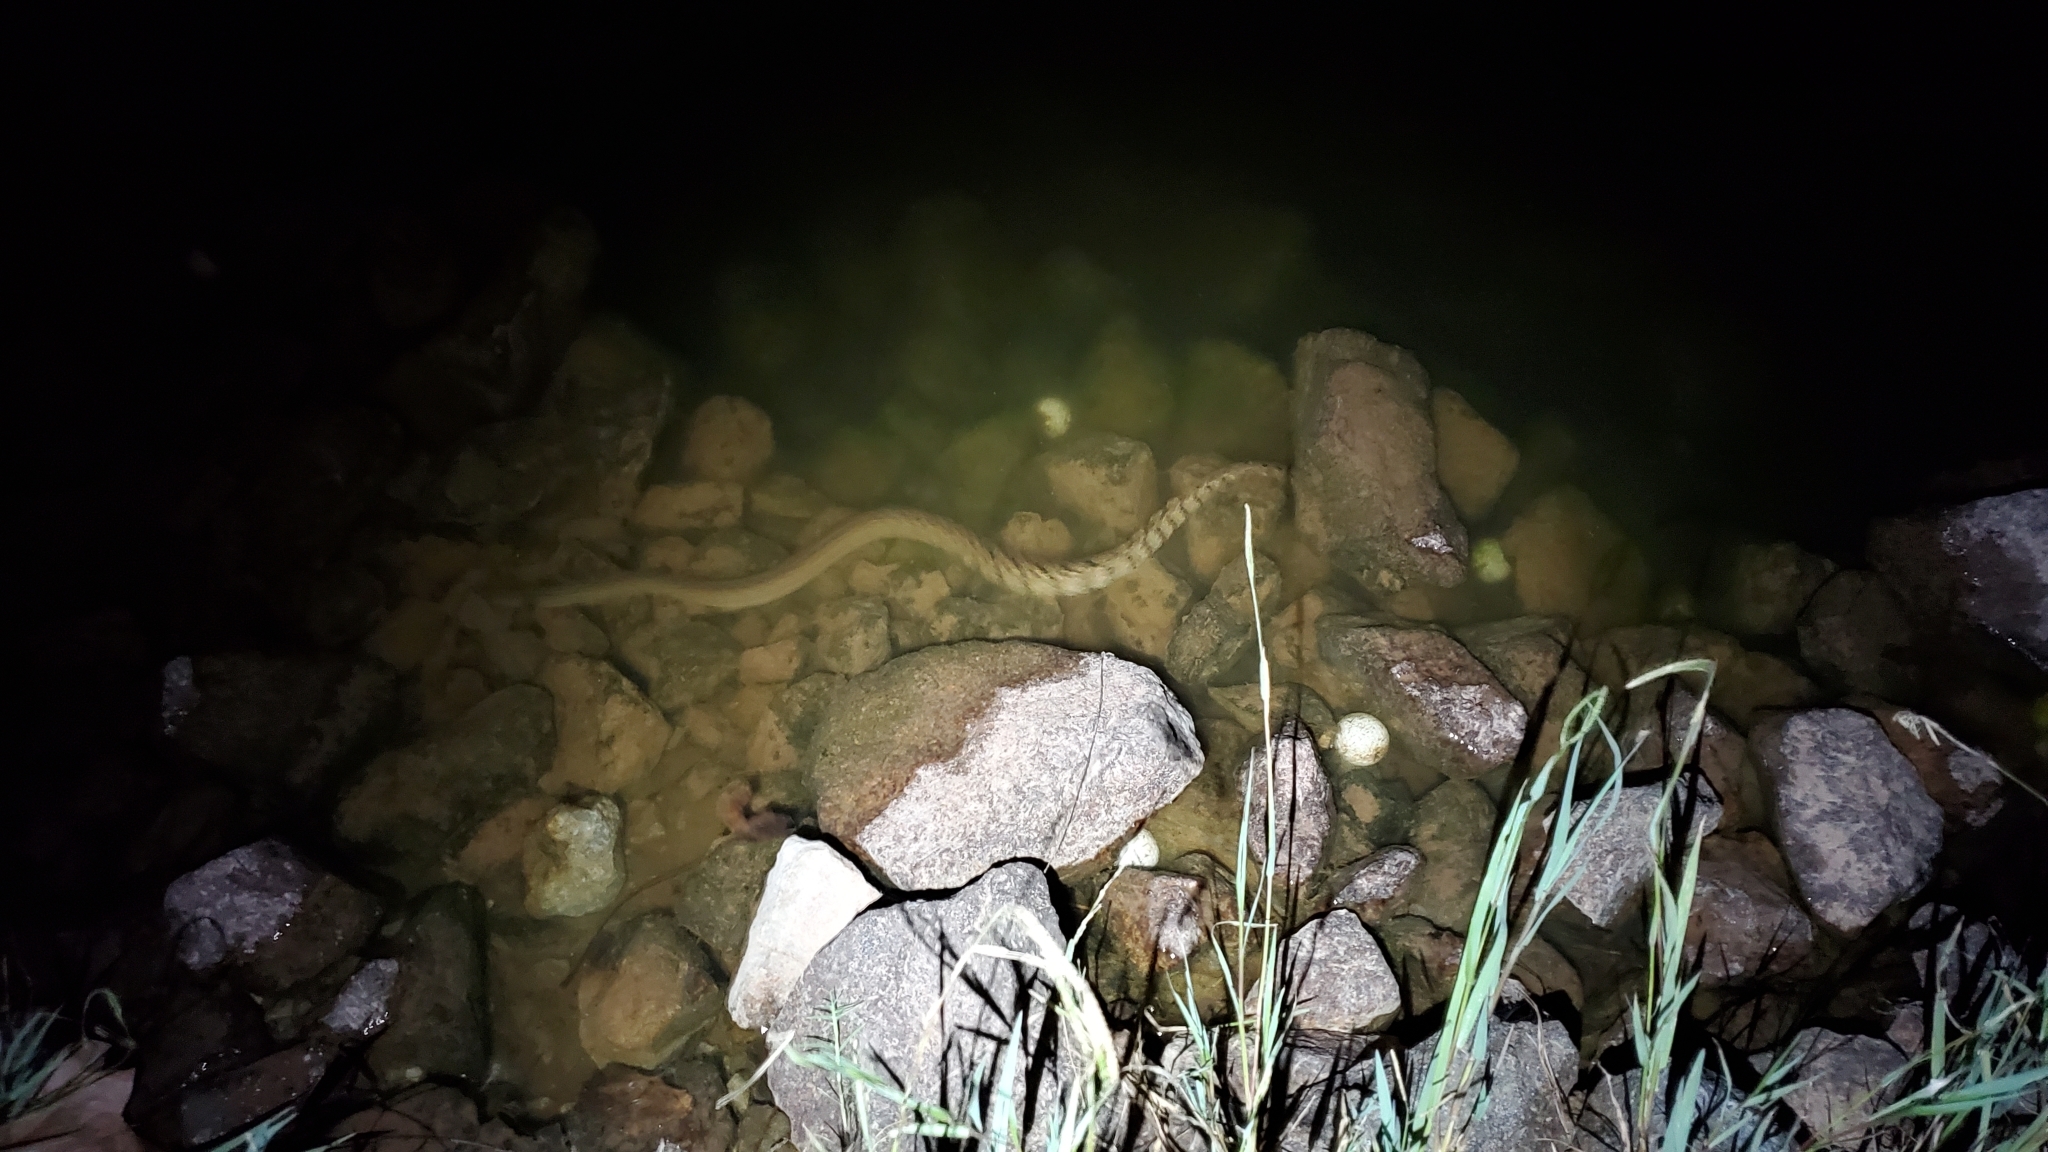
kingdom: Animalia
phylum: Chordata
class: Squamata
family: Colubridae
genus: Nerodia
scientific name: Nerodia rhombifer
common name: Diamondback water snake
